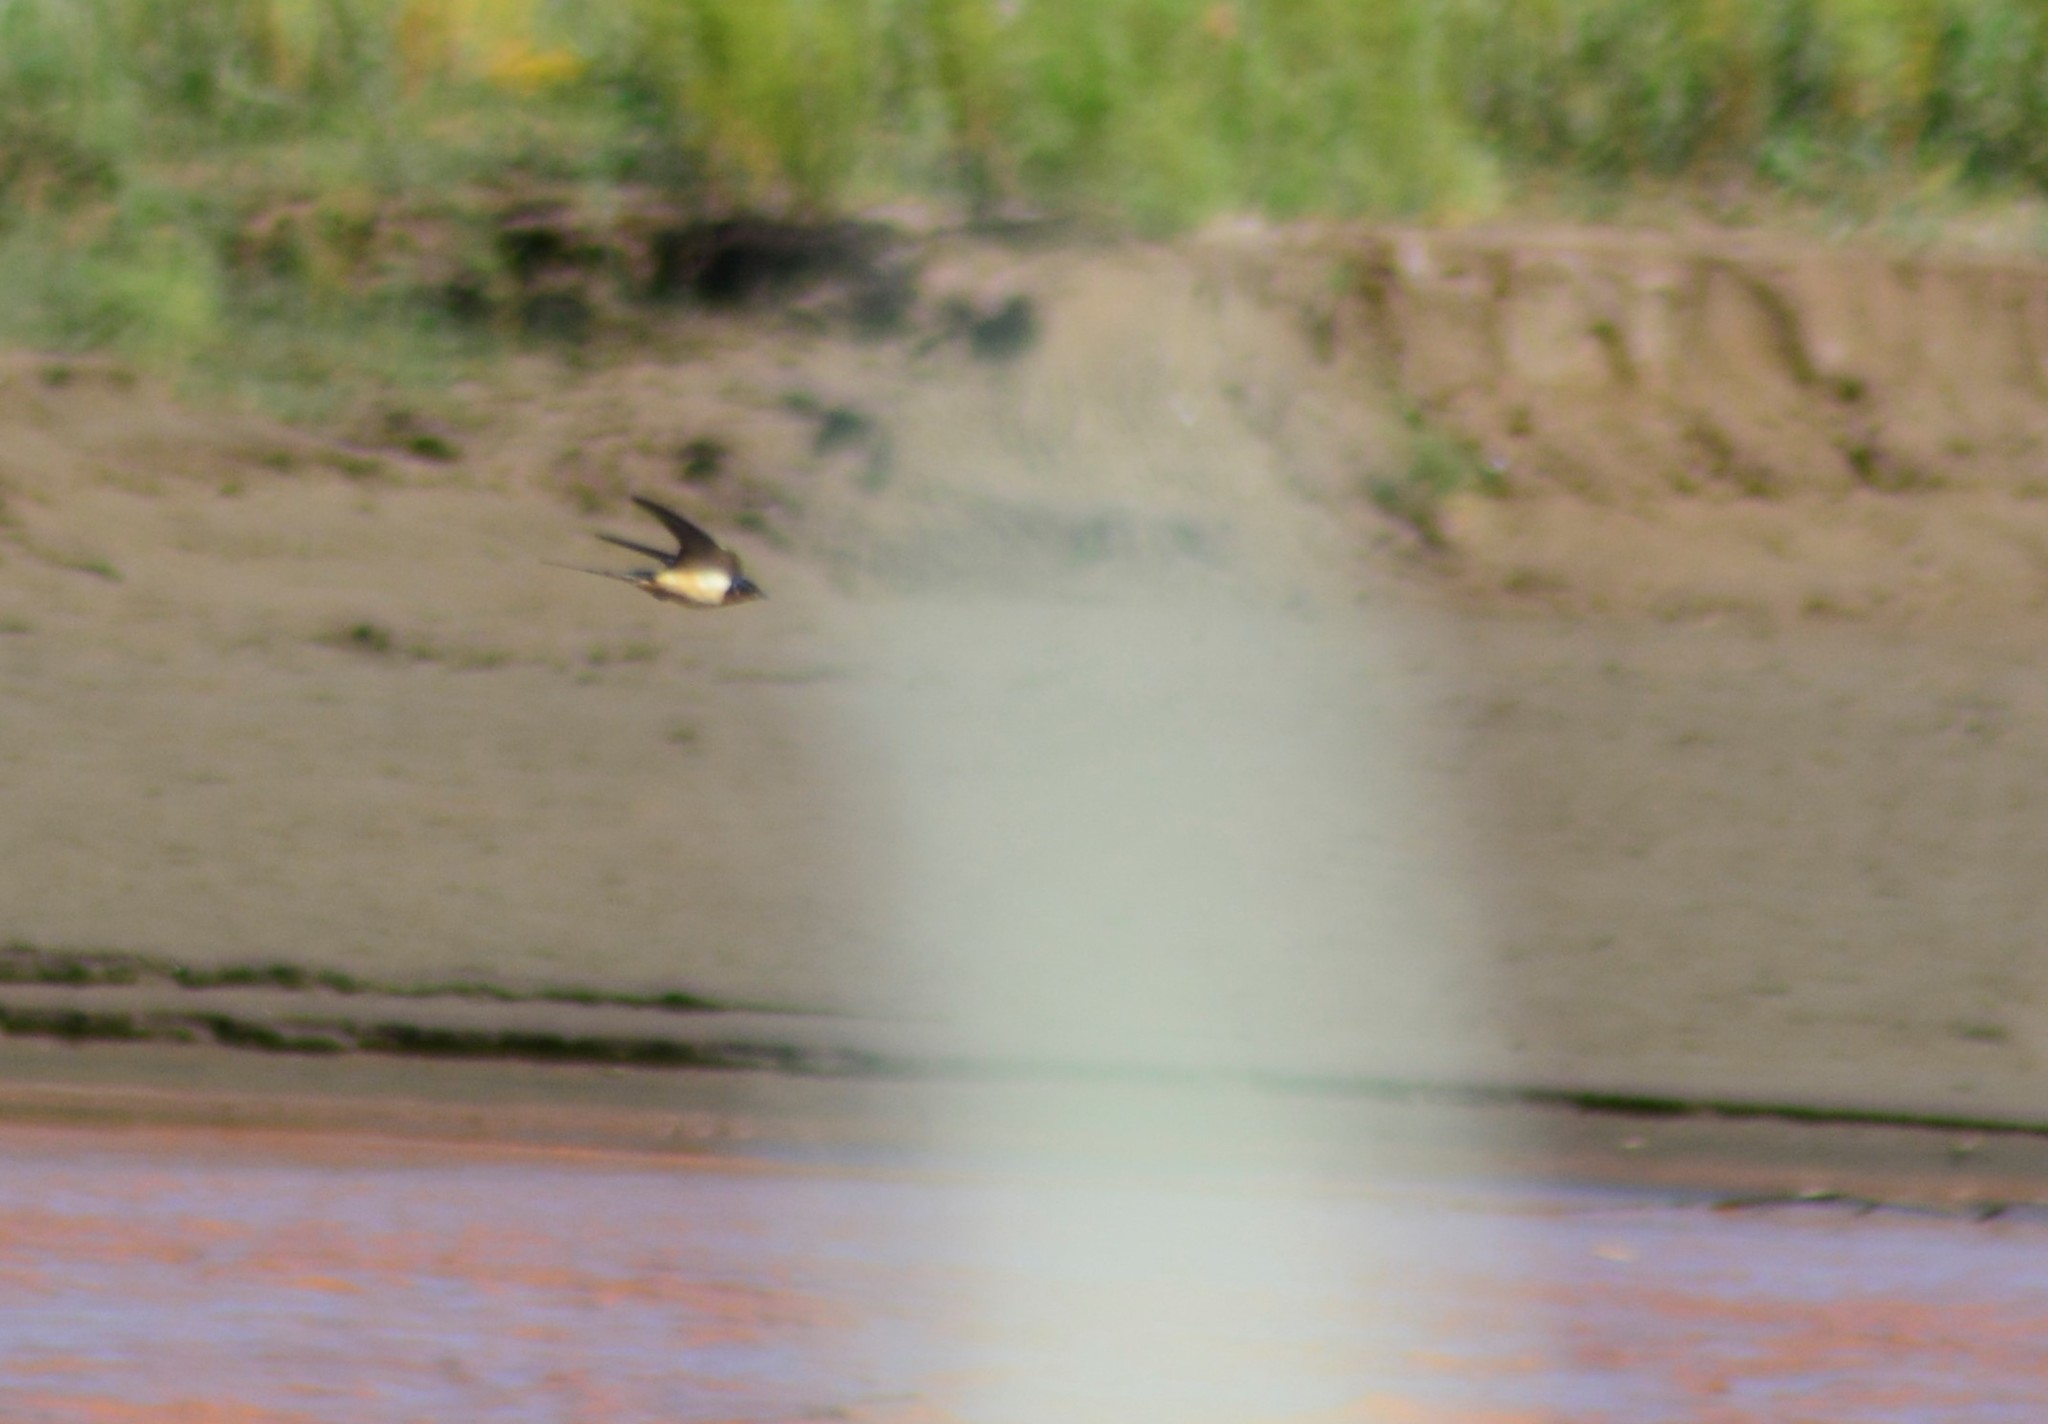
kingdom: Animalia
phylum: Chordata
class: Aves
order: Passeriformes
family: Hirundinidae
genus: Hirundo
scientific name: Hirundo rustica
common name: Barn swallow
